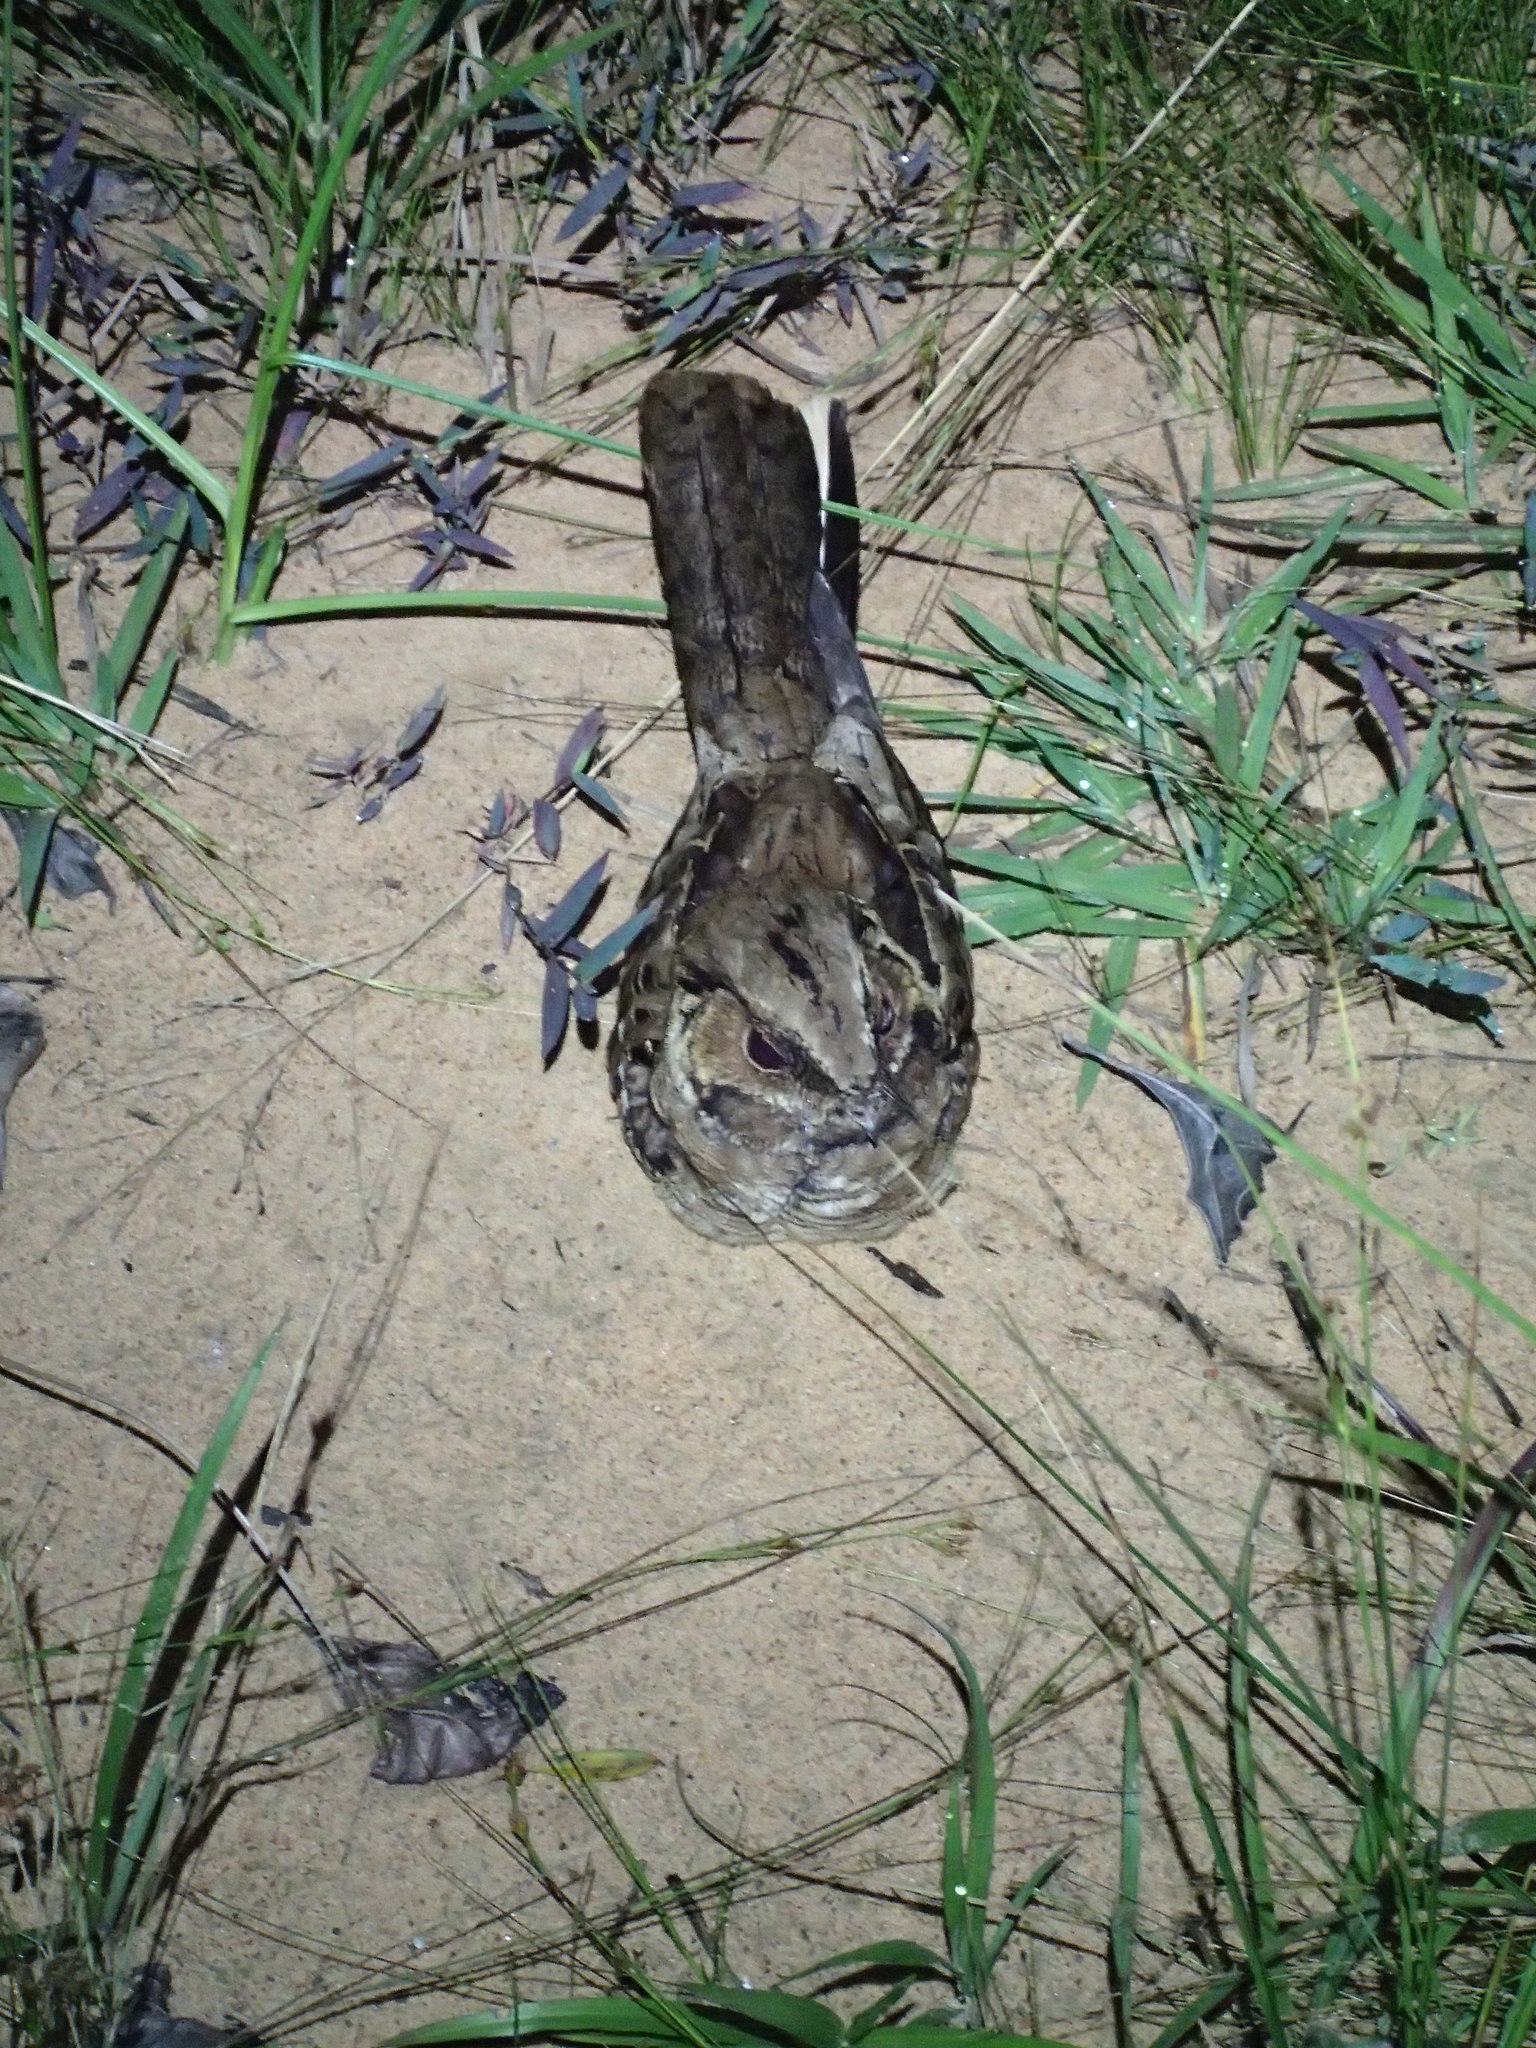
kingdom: Animalia
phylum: Chordata
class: Aves
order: Caprimulgiformes
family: Caprimulgidae
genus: Nyctidromus
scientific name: Nyctidromus albicollis
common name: Pauraque
